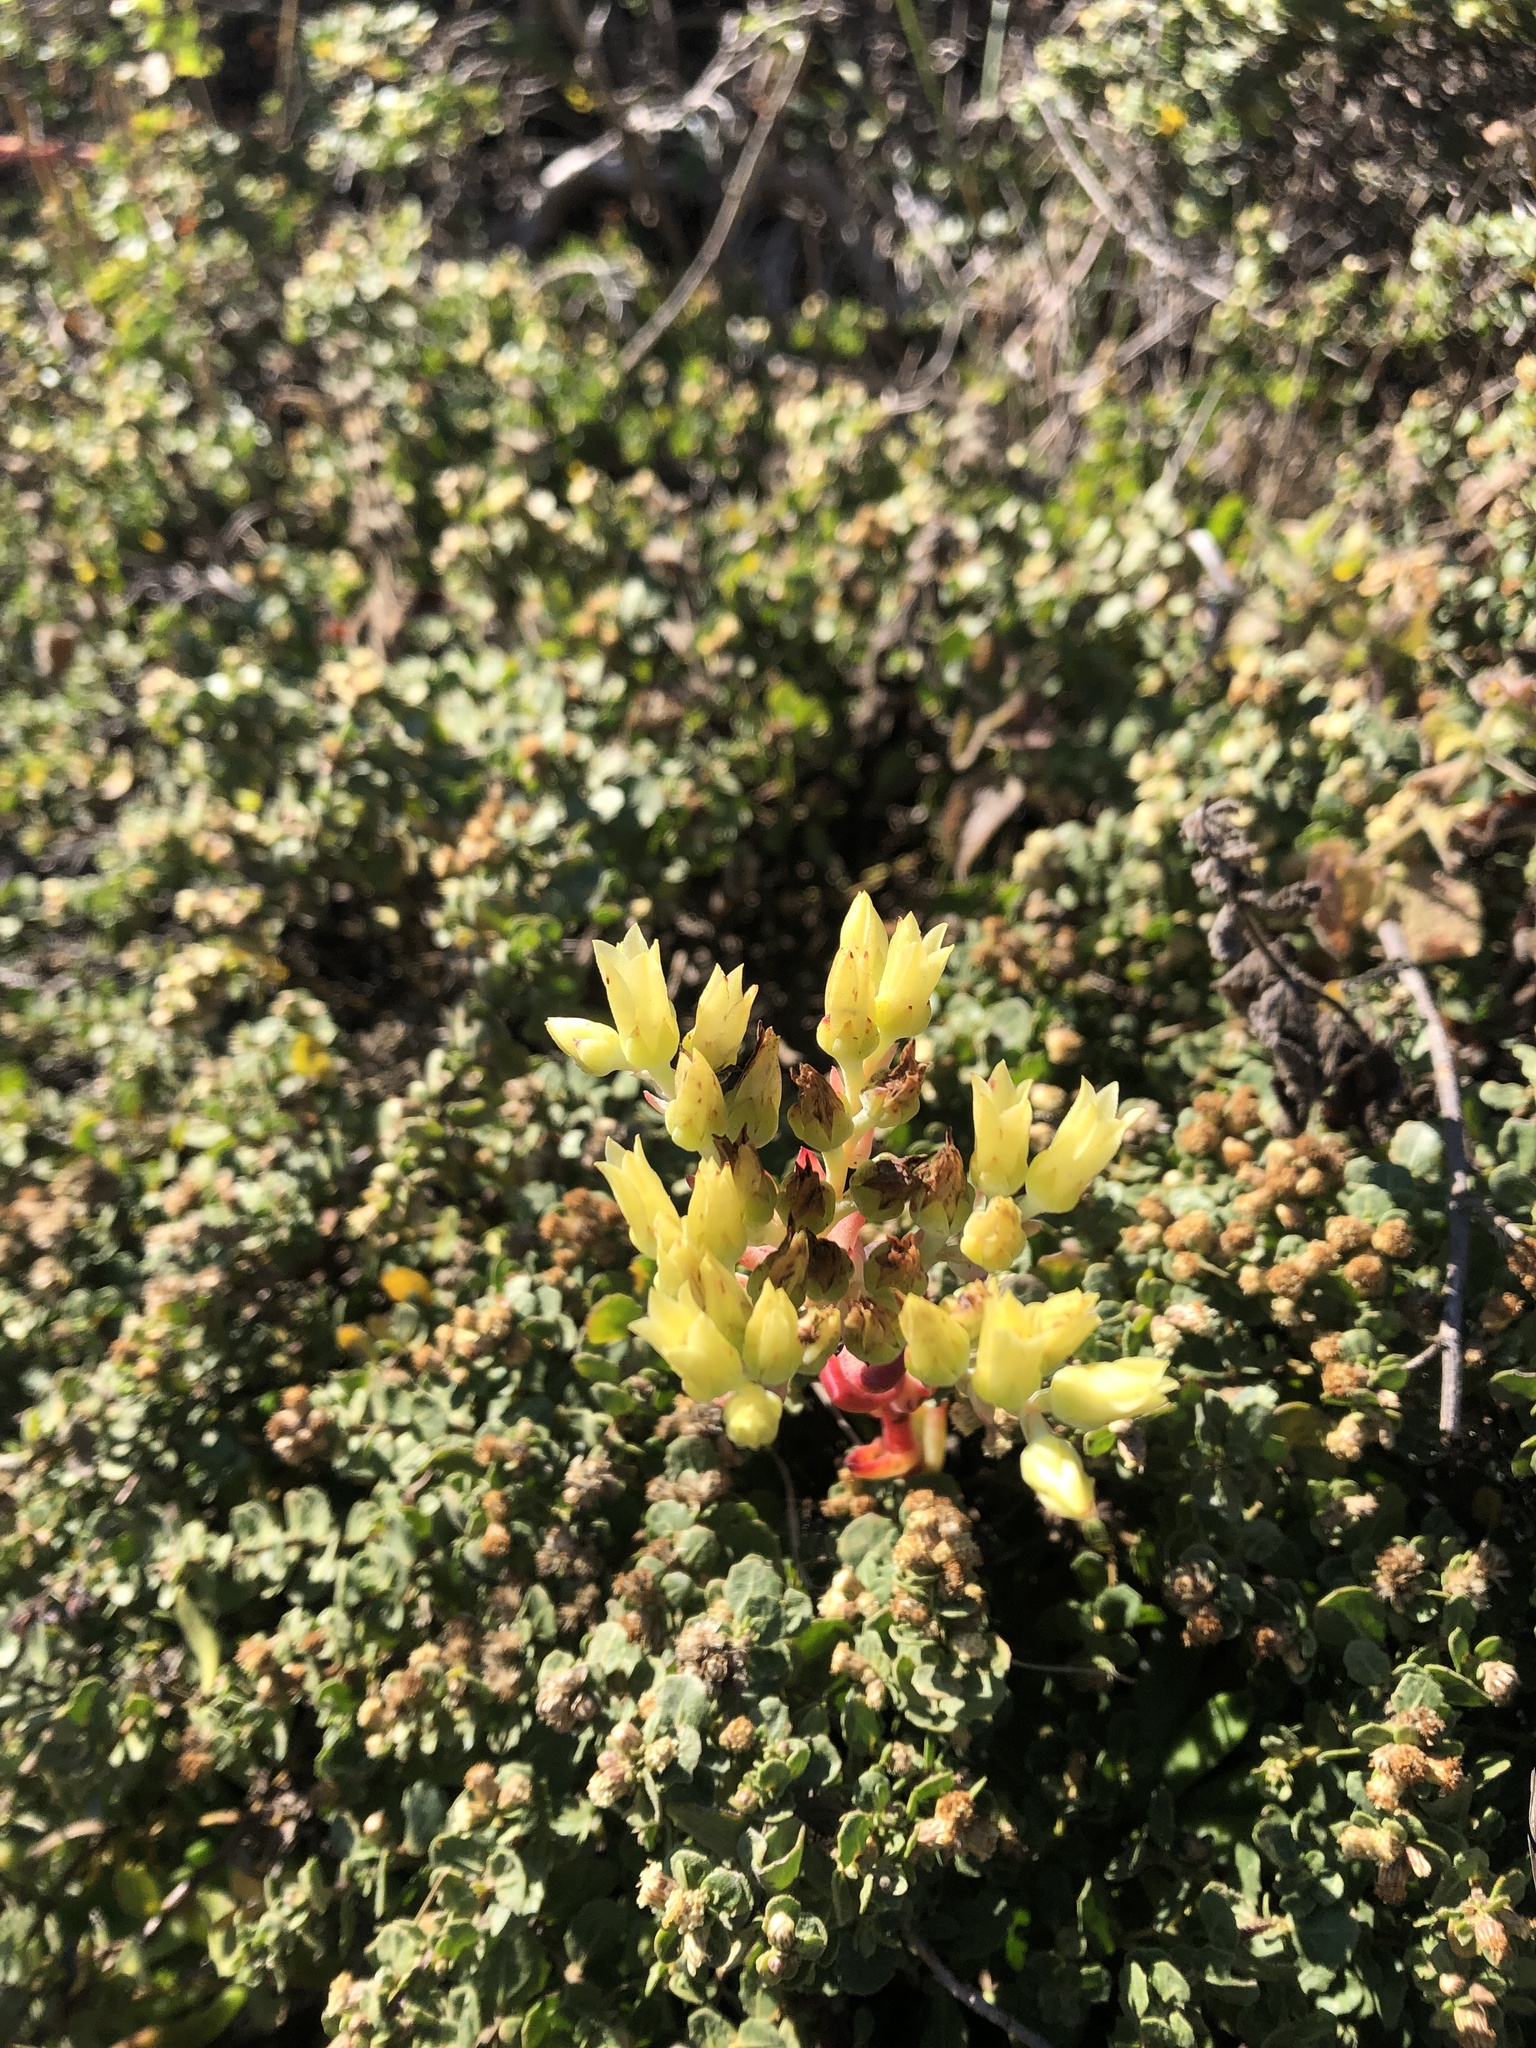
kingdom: Plantae
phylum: Tracheophyta
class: Magnoliopsida
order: Saxifragales
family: Crassulaceae
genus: Dudleya
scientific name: Dudleya farinosa
